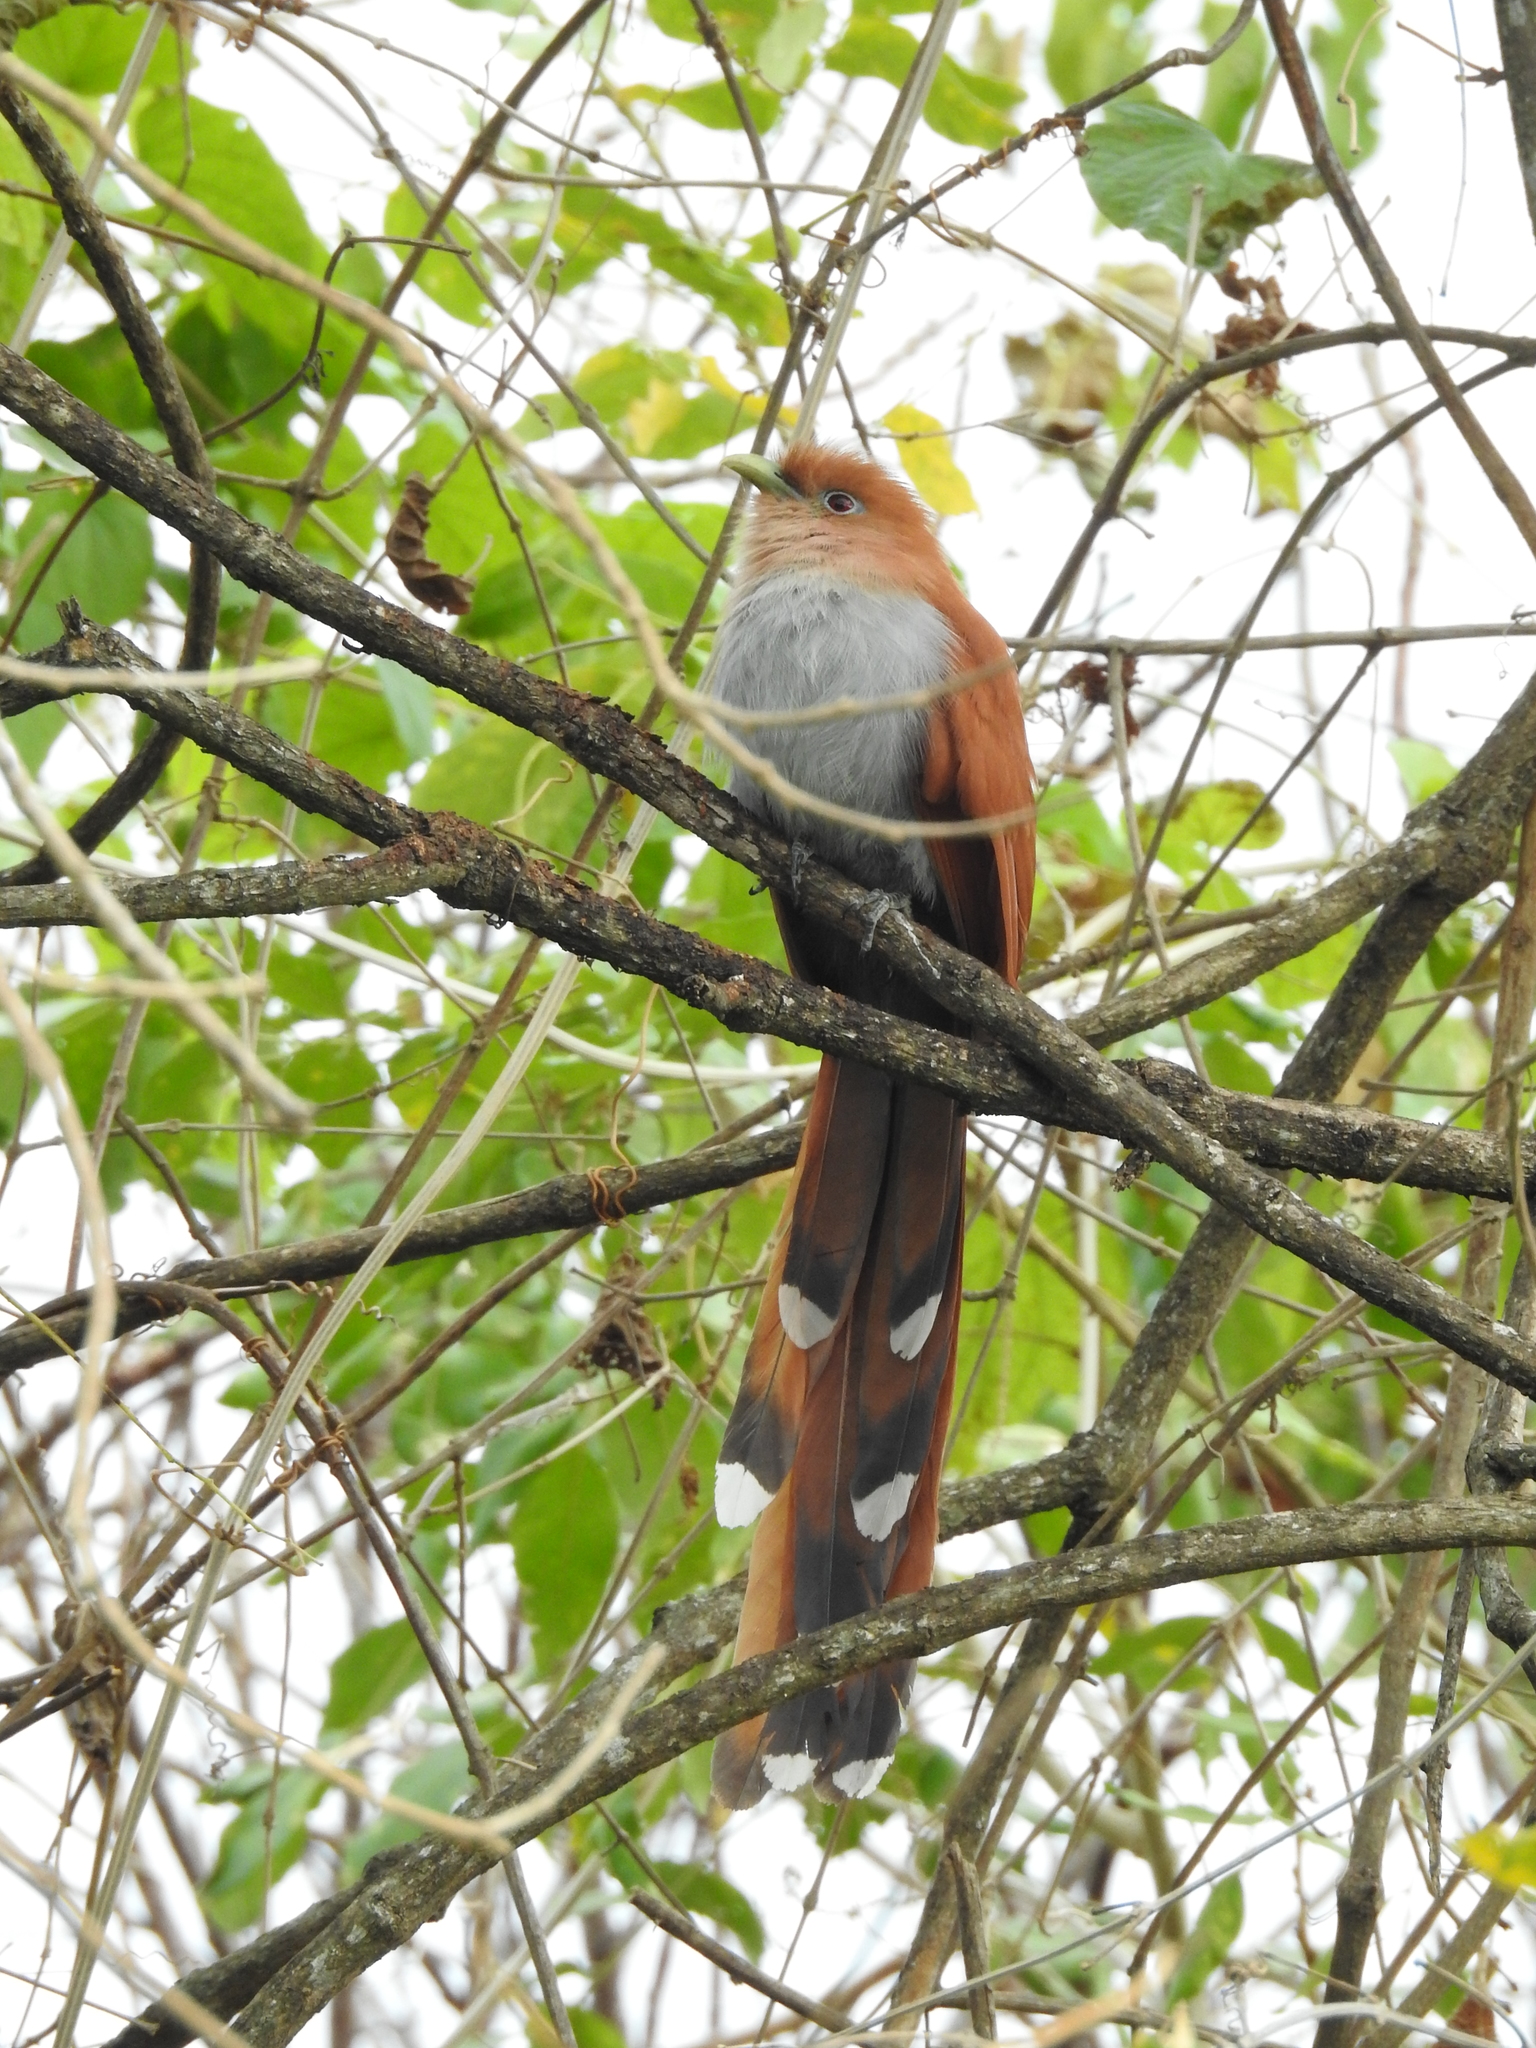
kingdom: Animalia
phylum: Chordata
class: Aves
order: Cuculiformes
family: Cuculidae
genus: Piaya
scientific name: Piaya cayana
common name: Squirrel cuckoo
